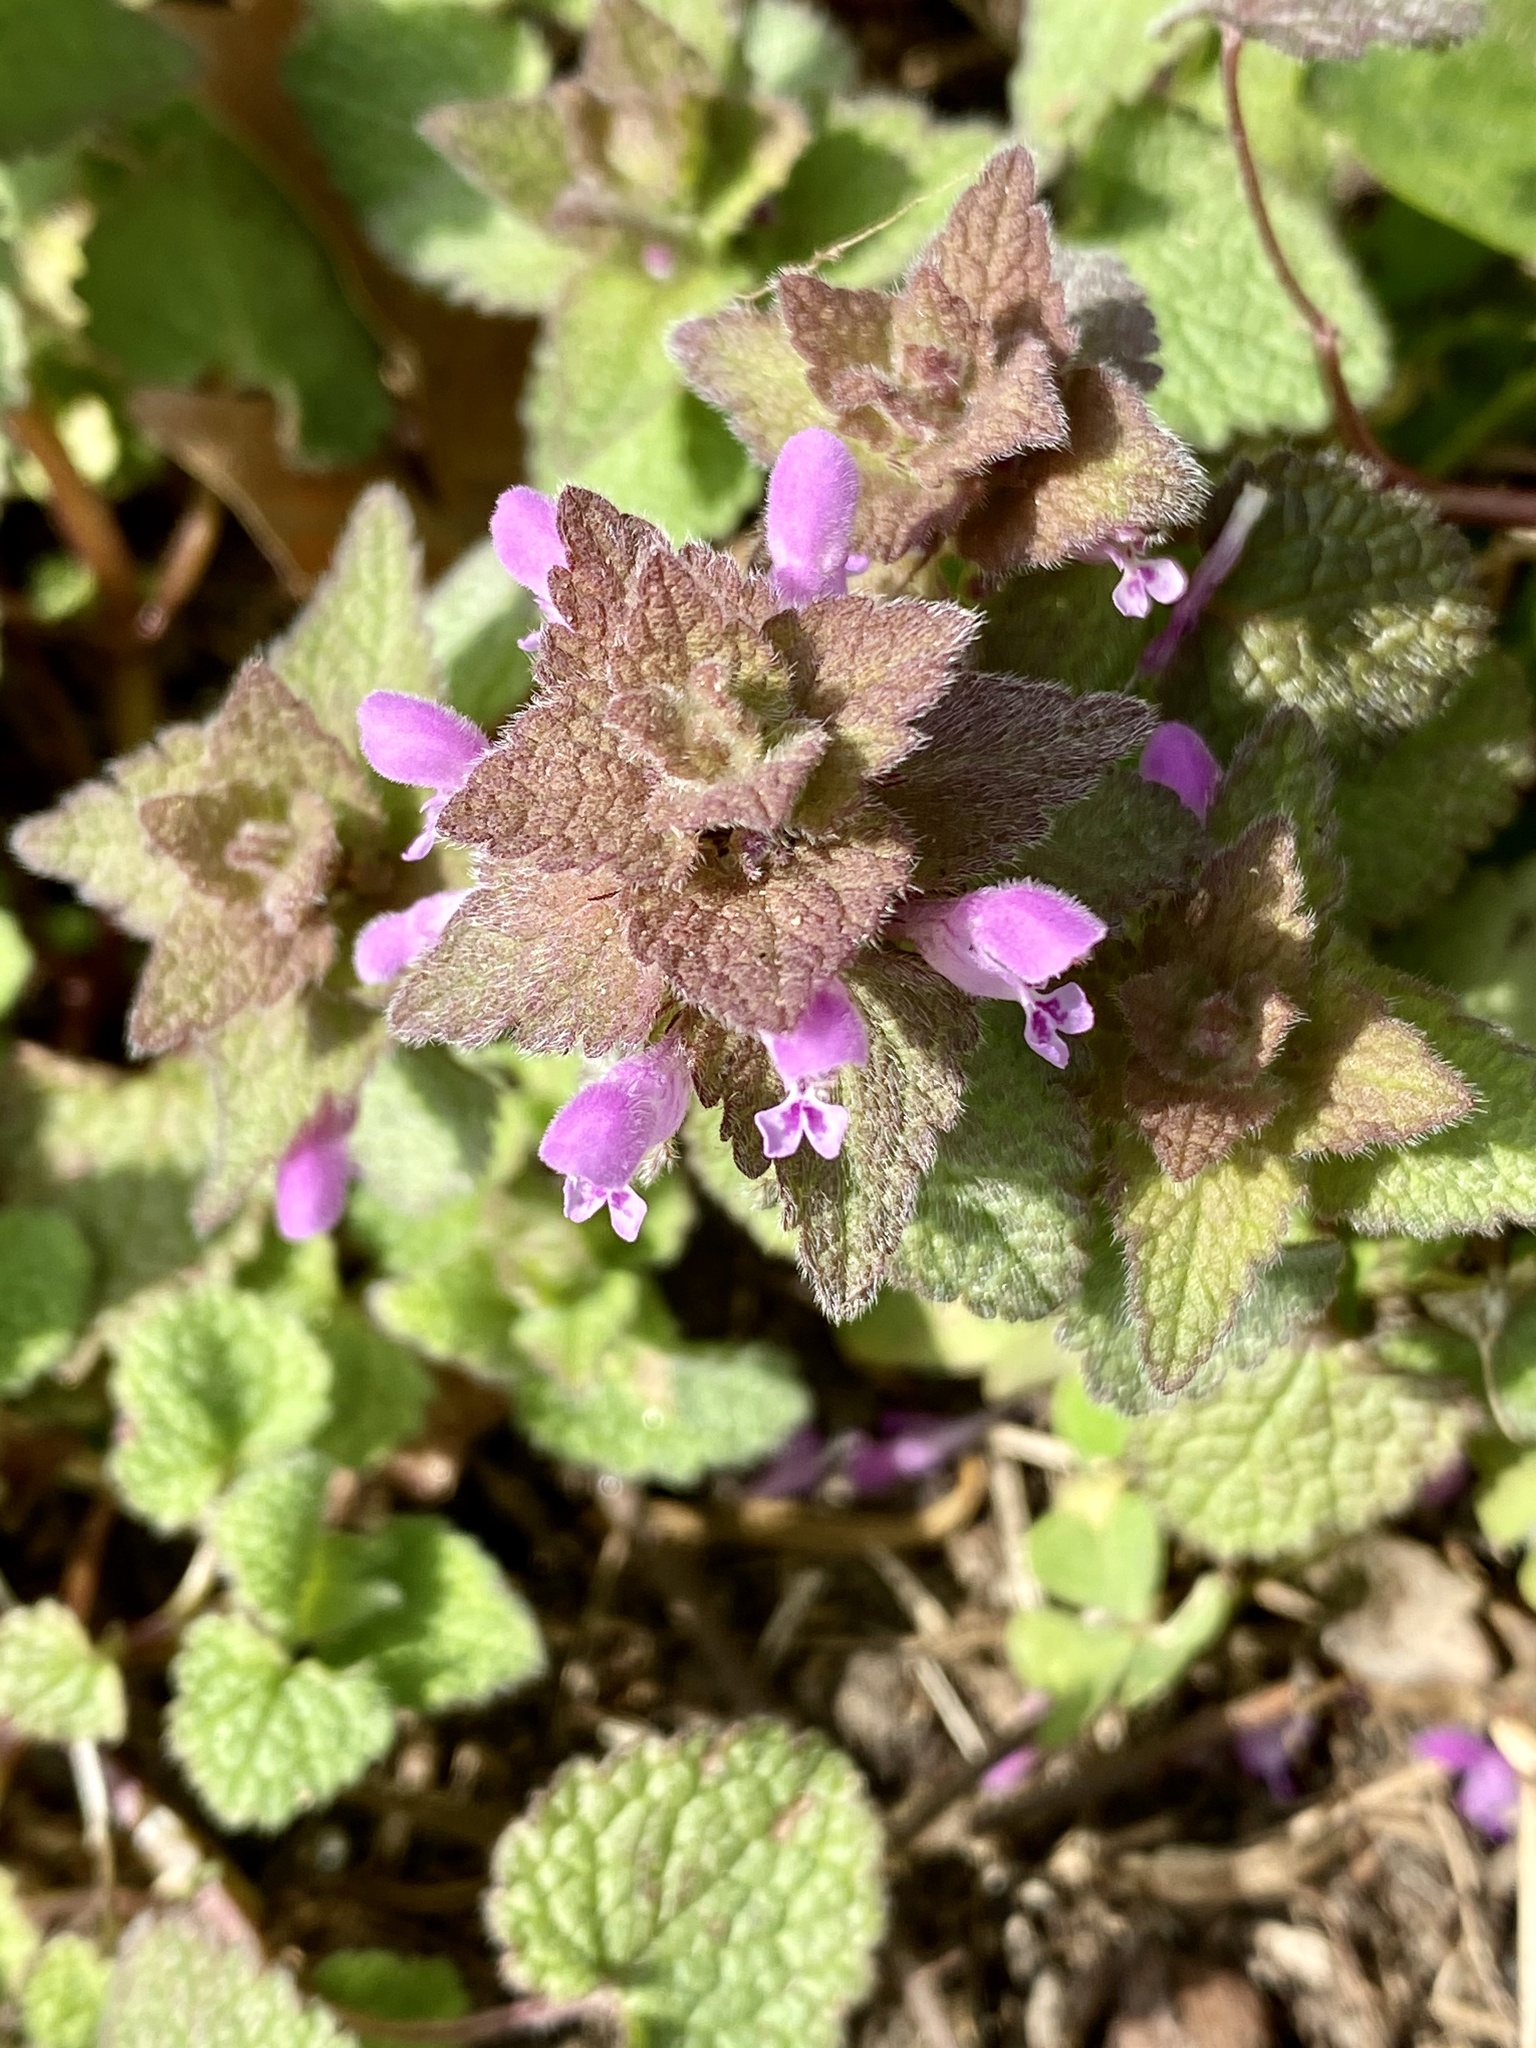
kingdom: Plantae
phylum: Tracheophyta
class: Magnoliopsida
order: Lamiales
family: Lamiaceae
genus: Lamium
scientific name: Lamium purpureum
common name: Red dead-nettle
